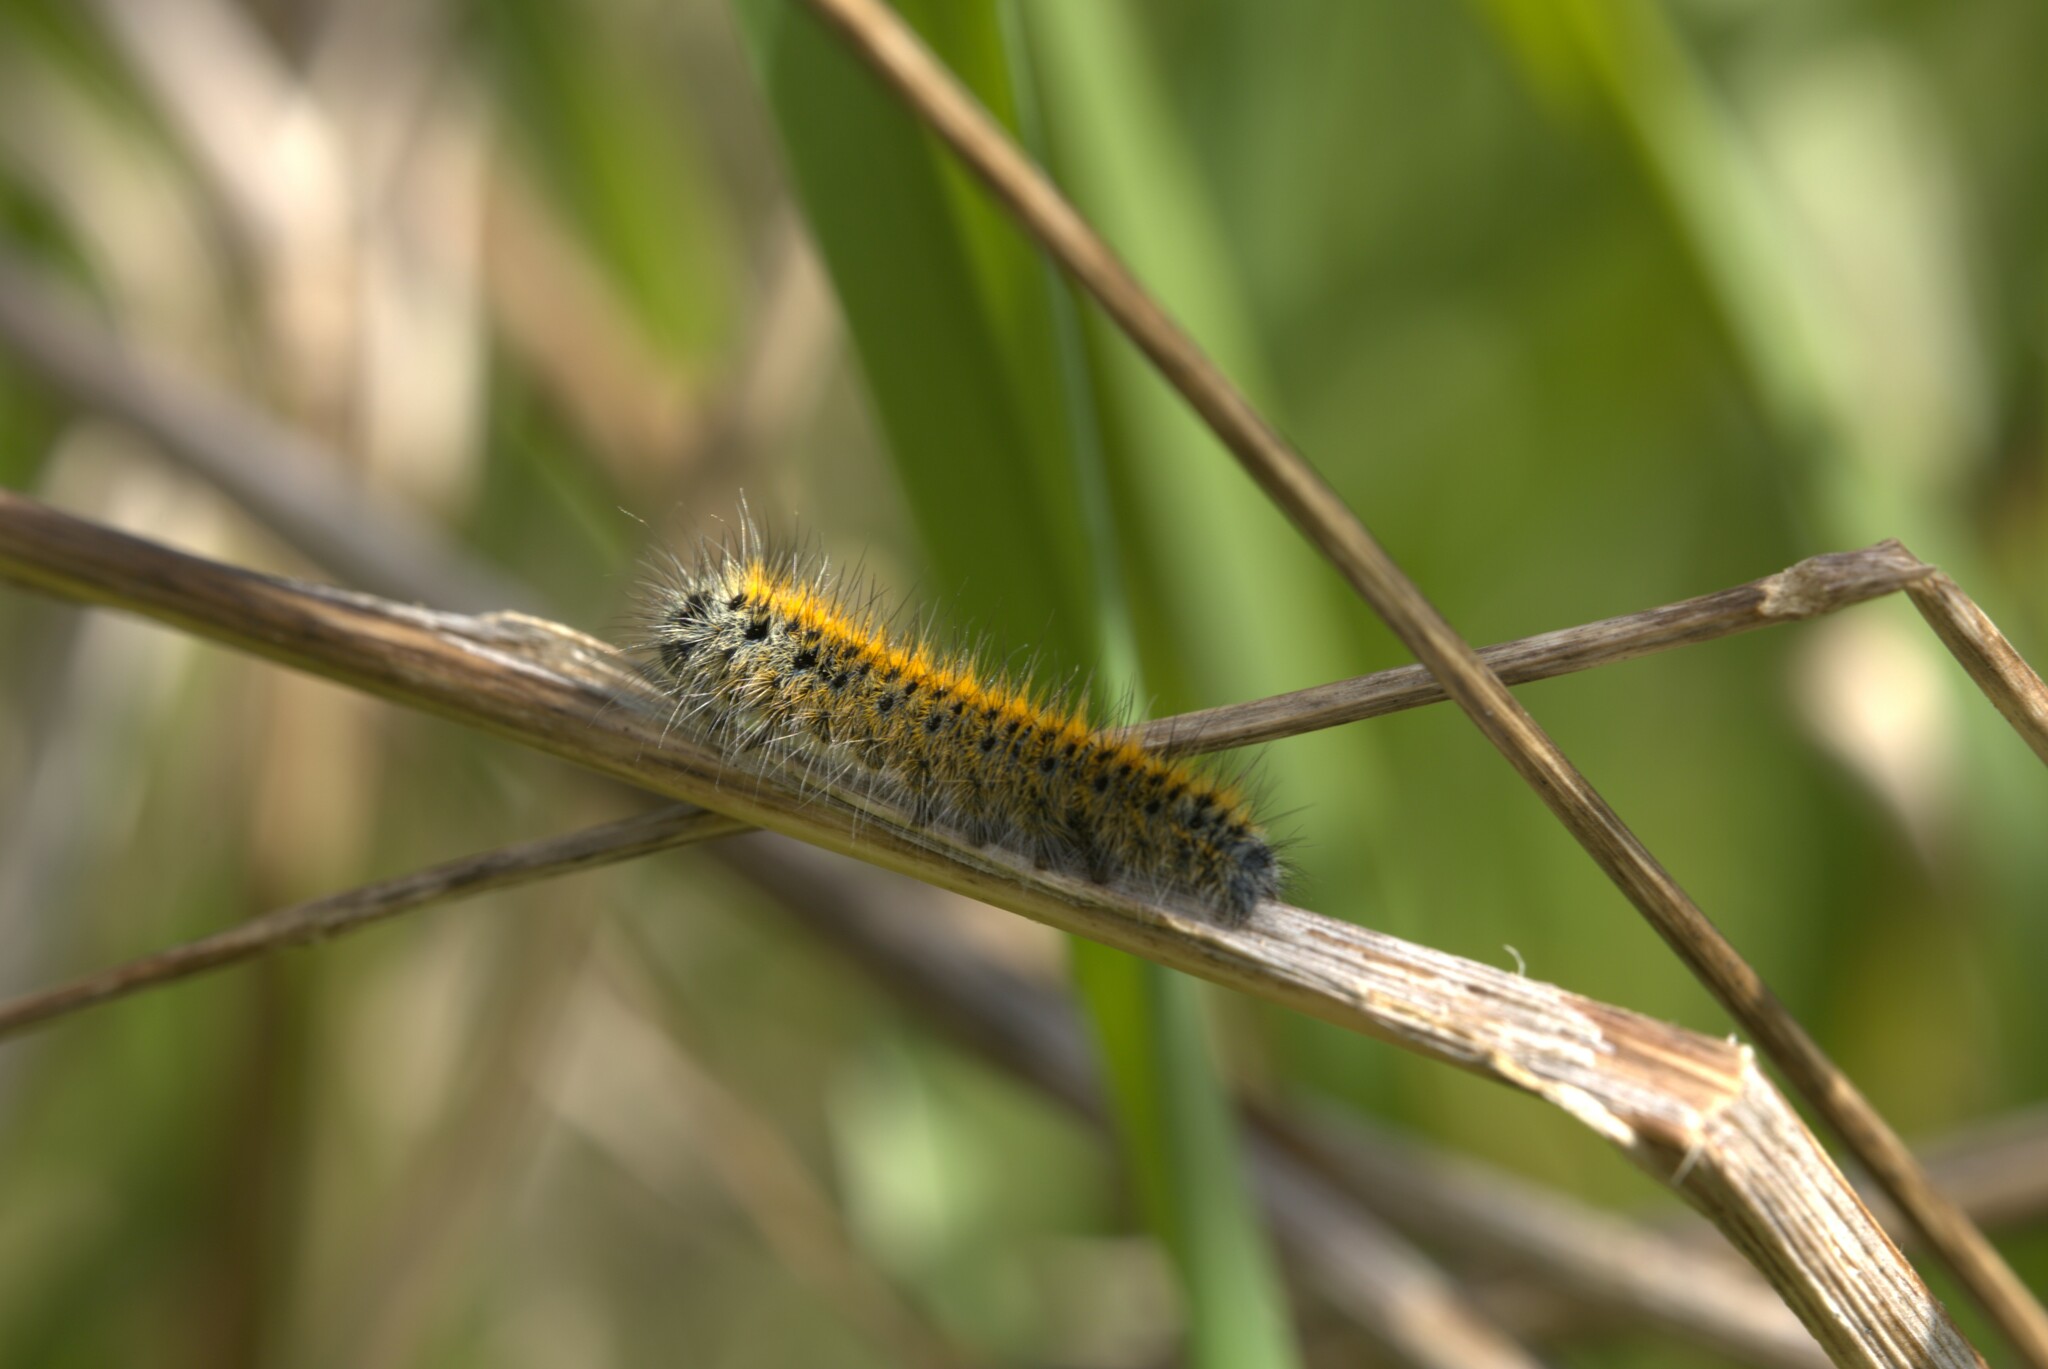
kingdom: Animalia
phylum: Arthropoda
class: Insecta
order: Lepidoptera
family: Lasiocampidae
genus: Lasiocampa
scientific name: Lasiocampa trifolii
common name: Grass eggar
